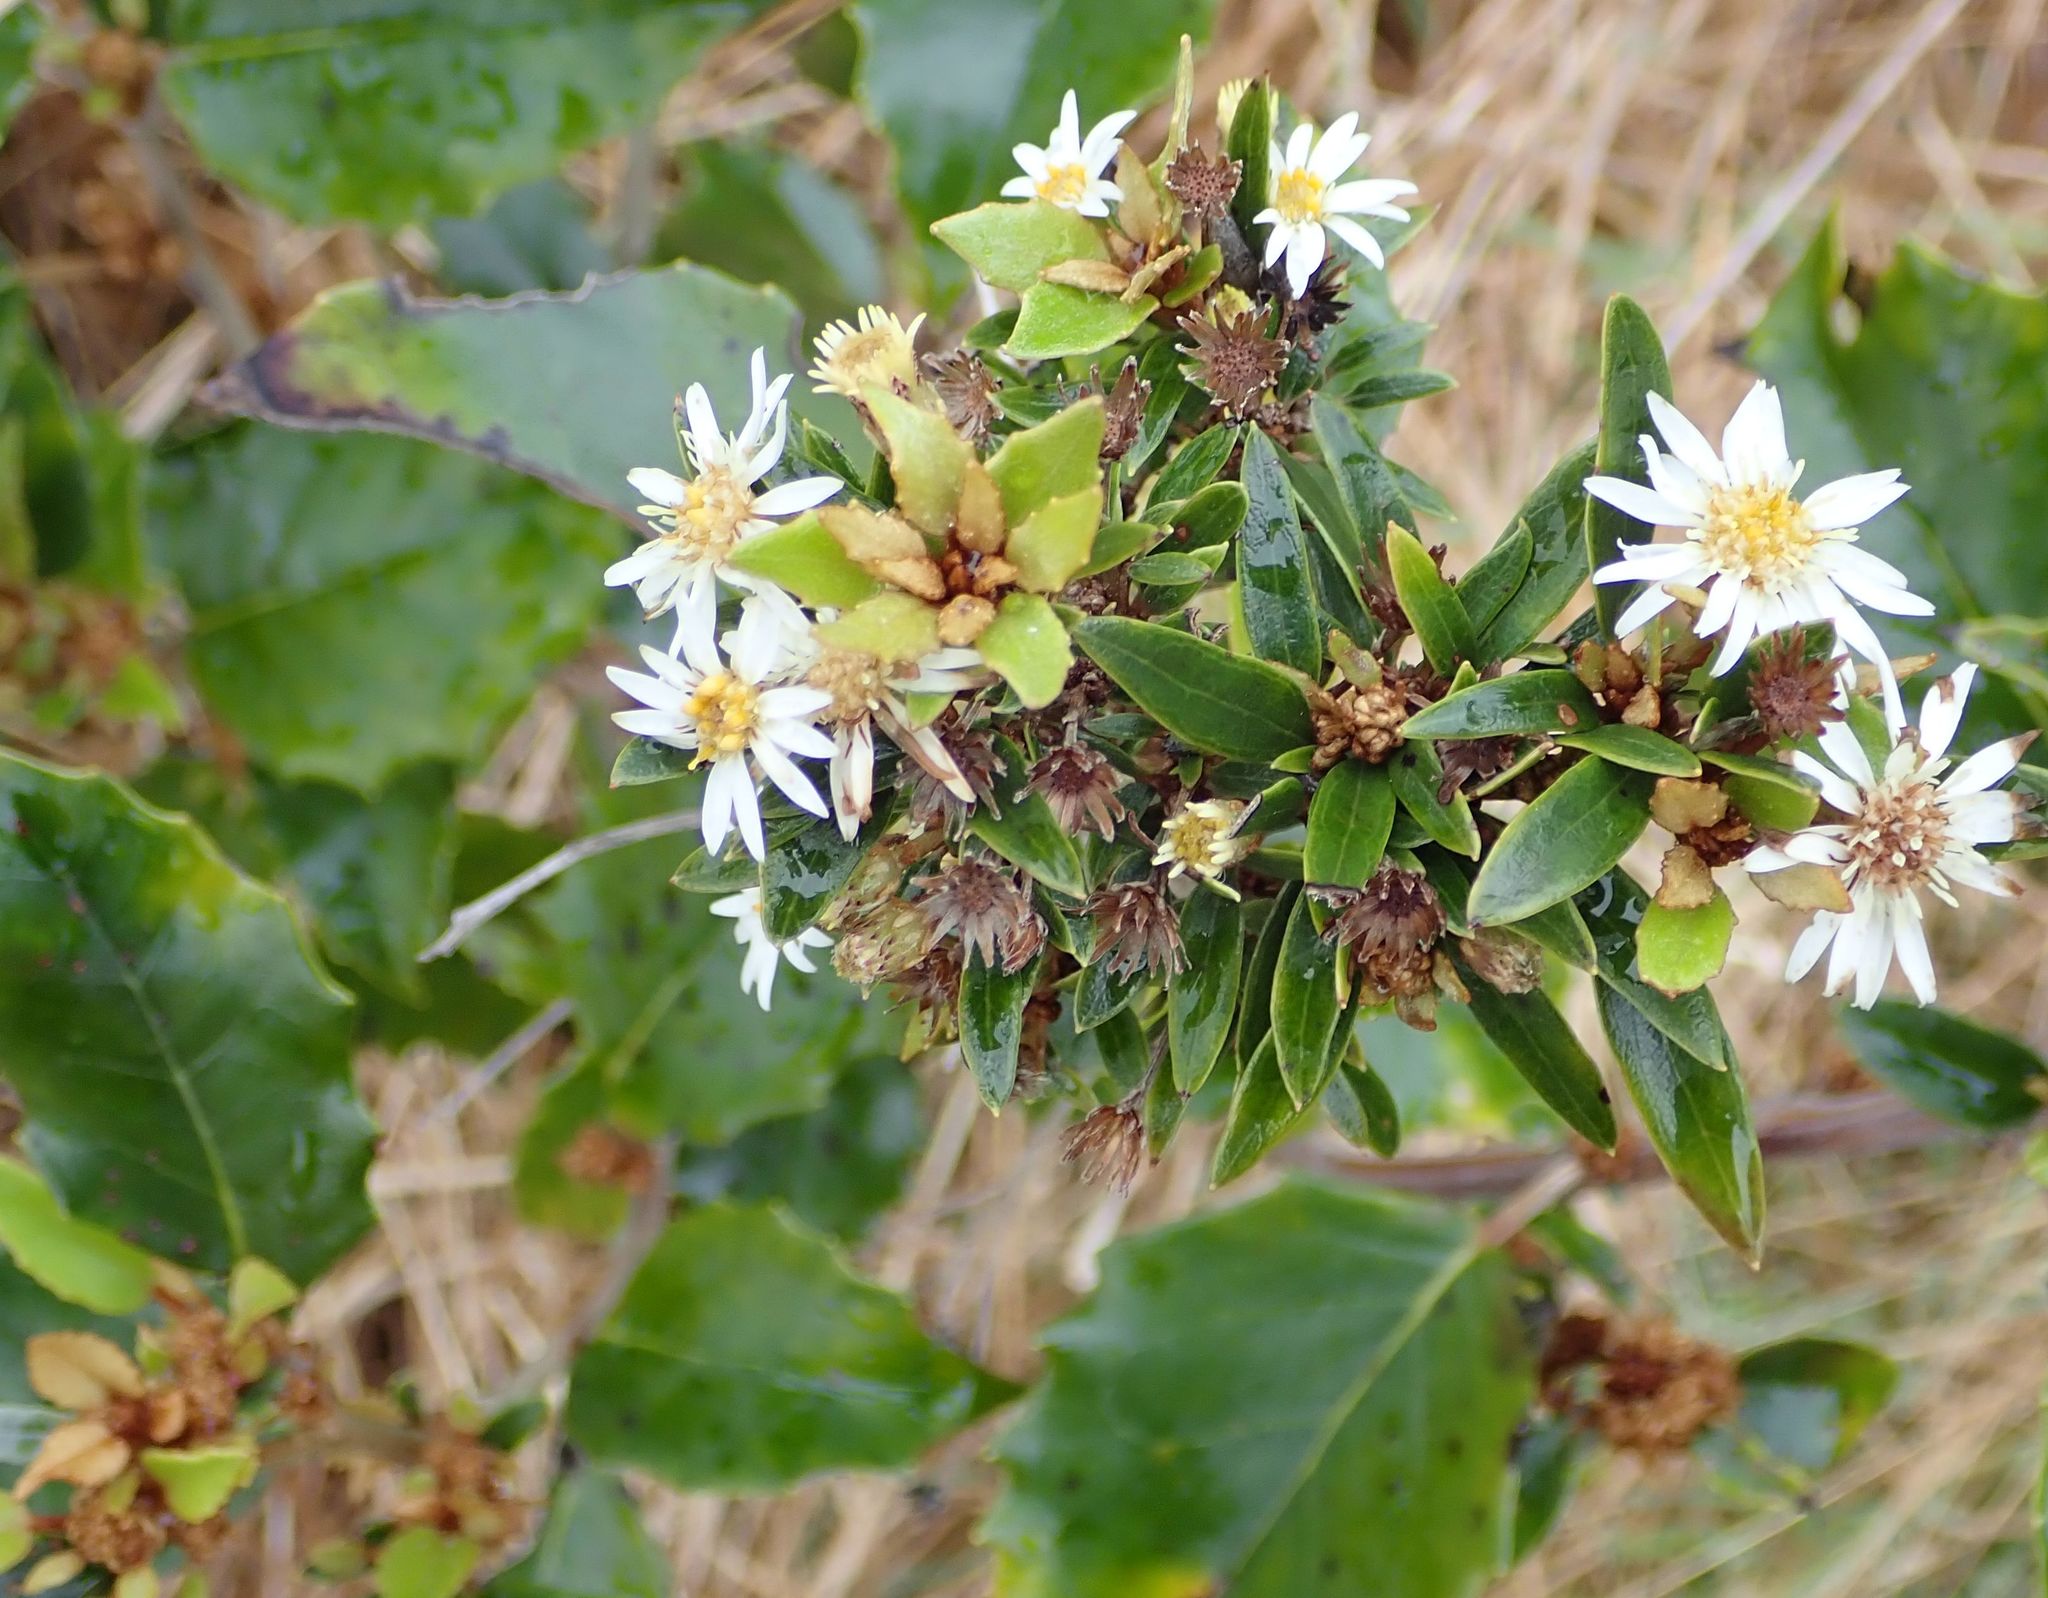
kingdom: Plantae
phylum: Tracheophyta
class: Magnoliopsida
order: Asterales
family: Asteraceae
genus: Olearia
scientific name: Olearia arborescens
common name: Glossy tree daisy
